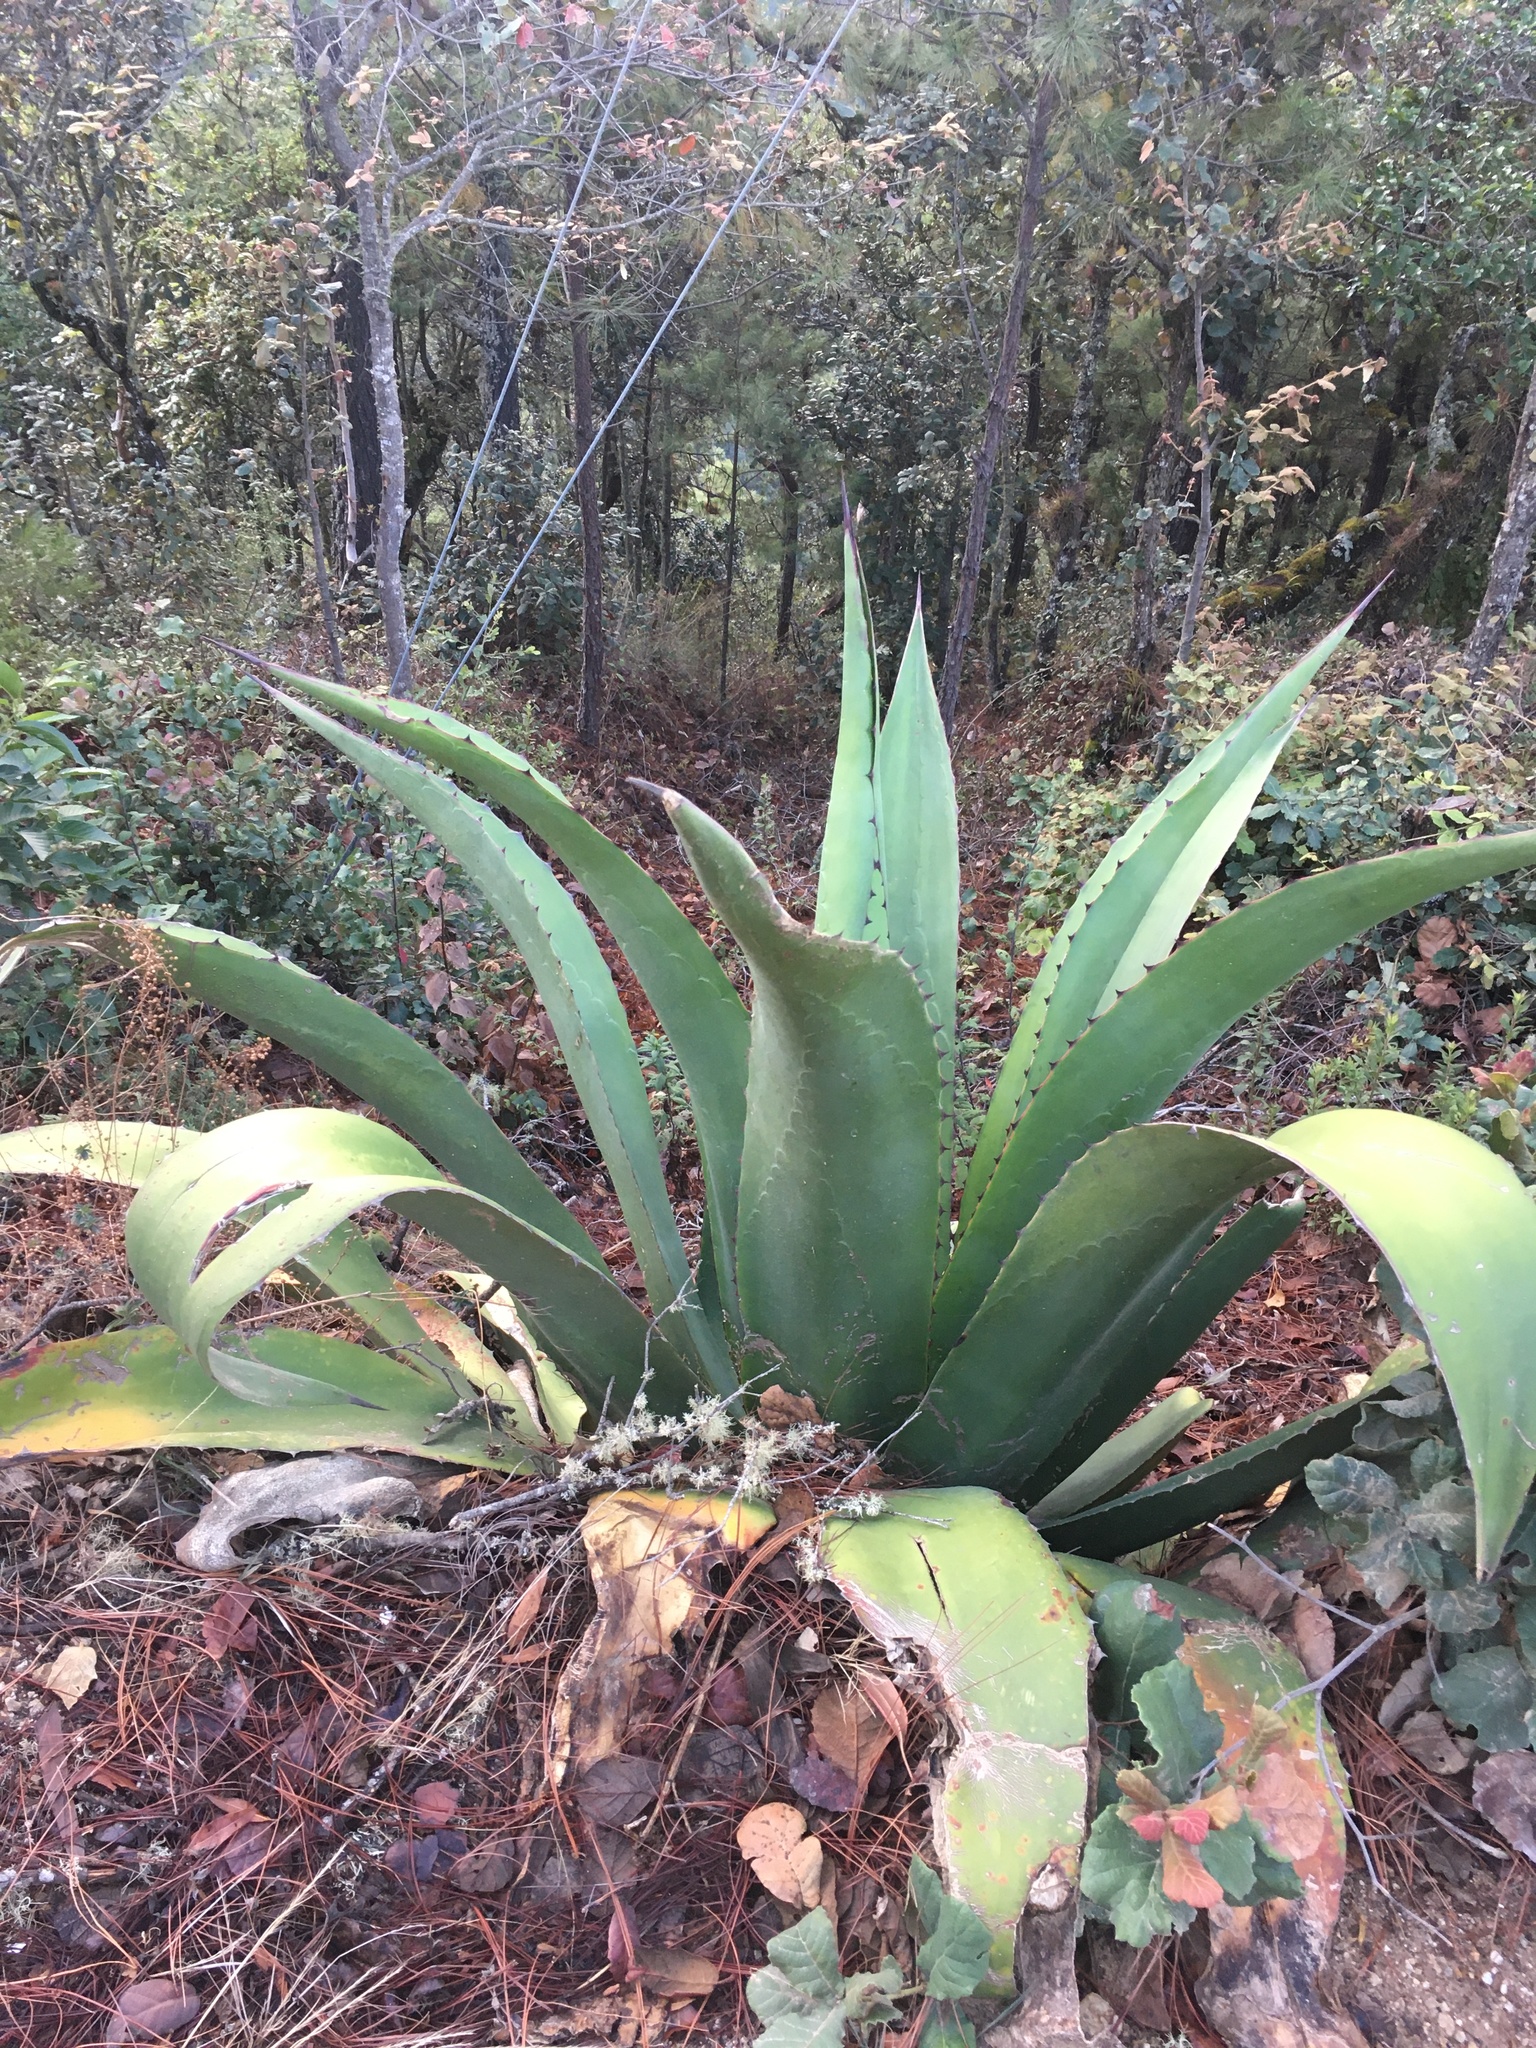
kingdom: Plantae
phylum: Tracheophyta
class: Liliopsida
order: Asparagales
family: Asparagaceae
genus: Agave
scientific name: Agave atrovirens
